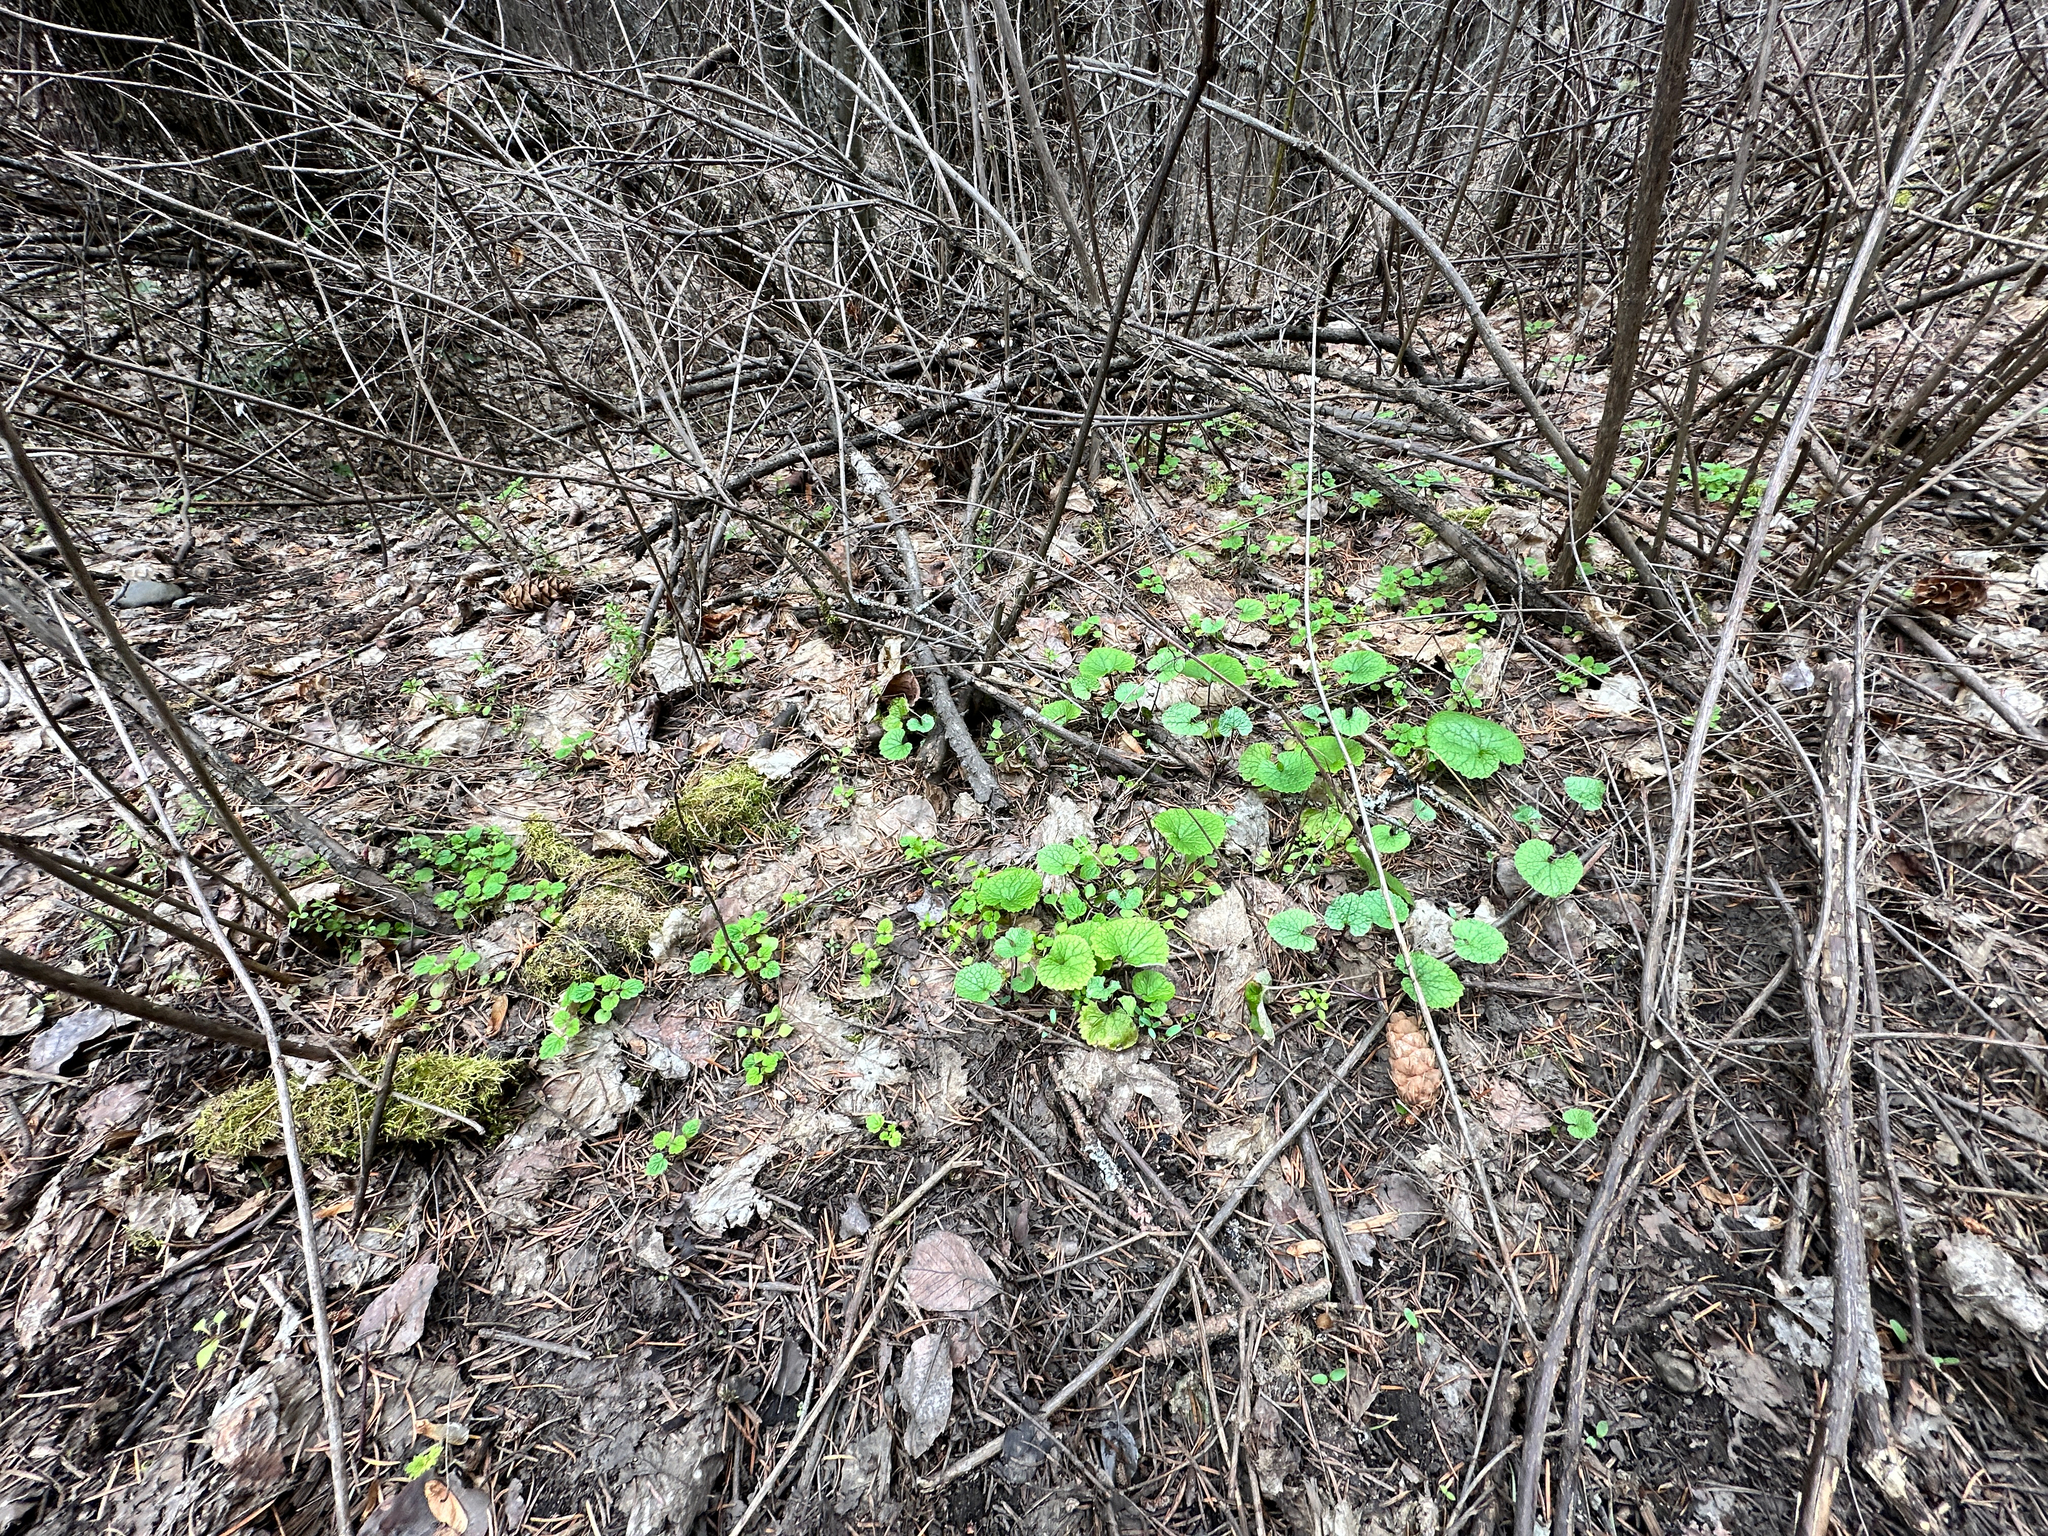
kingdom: Plantae
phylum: Tracheophyta
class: Magnoliopsida
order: Brassicales
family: Brassicaceae
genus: Alliaria
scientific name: Alliaria petiolata
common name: Garlic mustard
